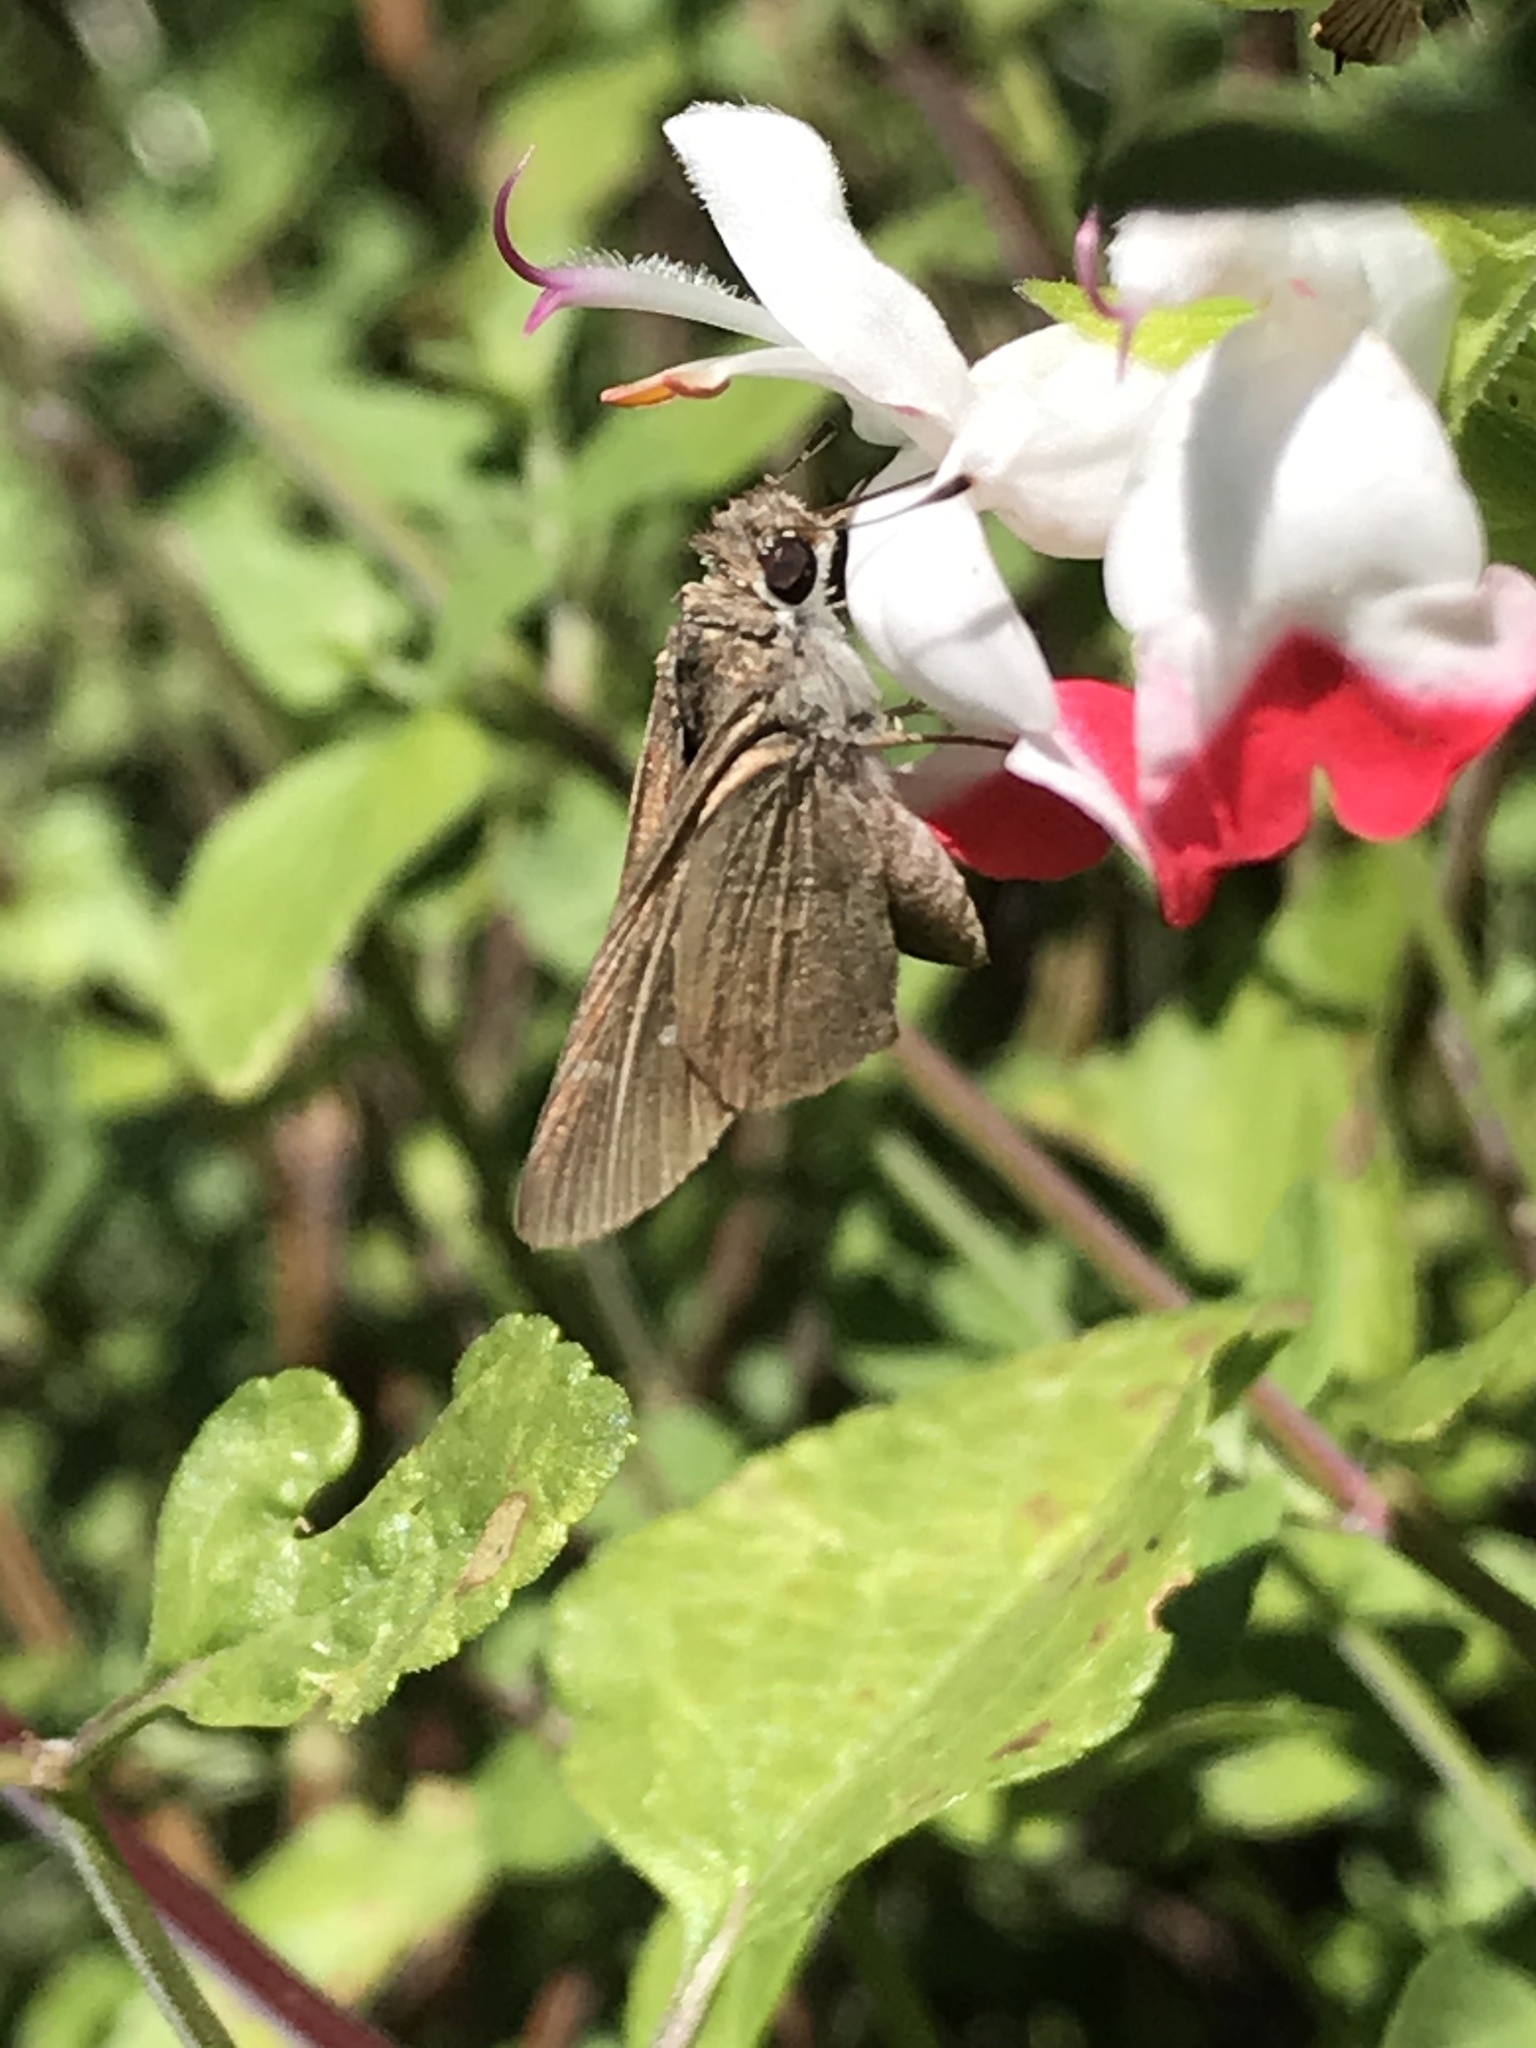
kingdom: Animalia
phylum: Arthropoda
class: Insecta
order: Lepidoptera
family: Hesperiidae
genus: Lerodea
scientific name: Lerodea eufala
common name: Eufala skipper
